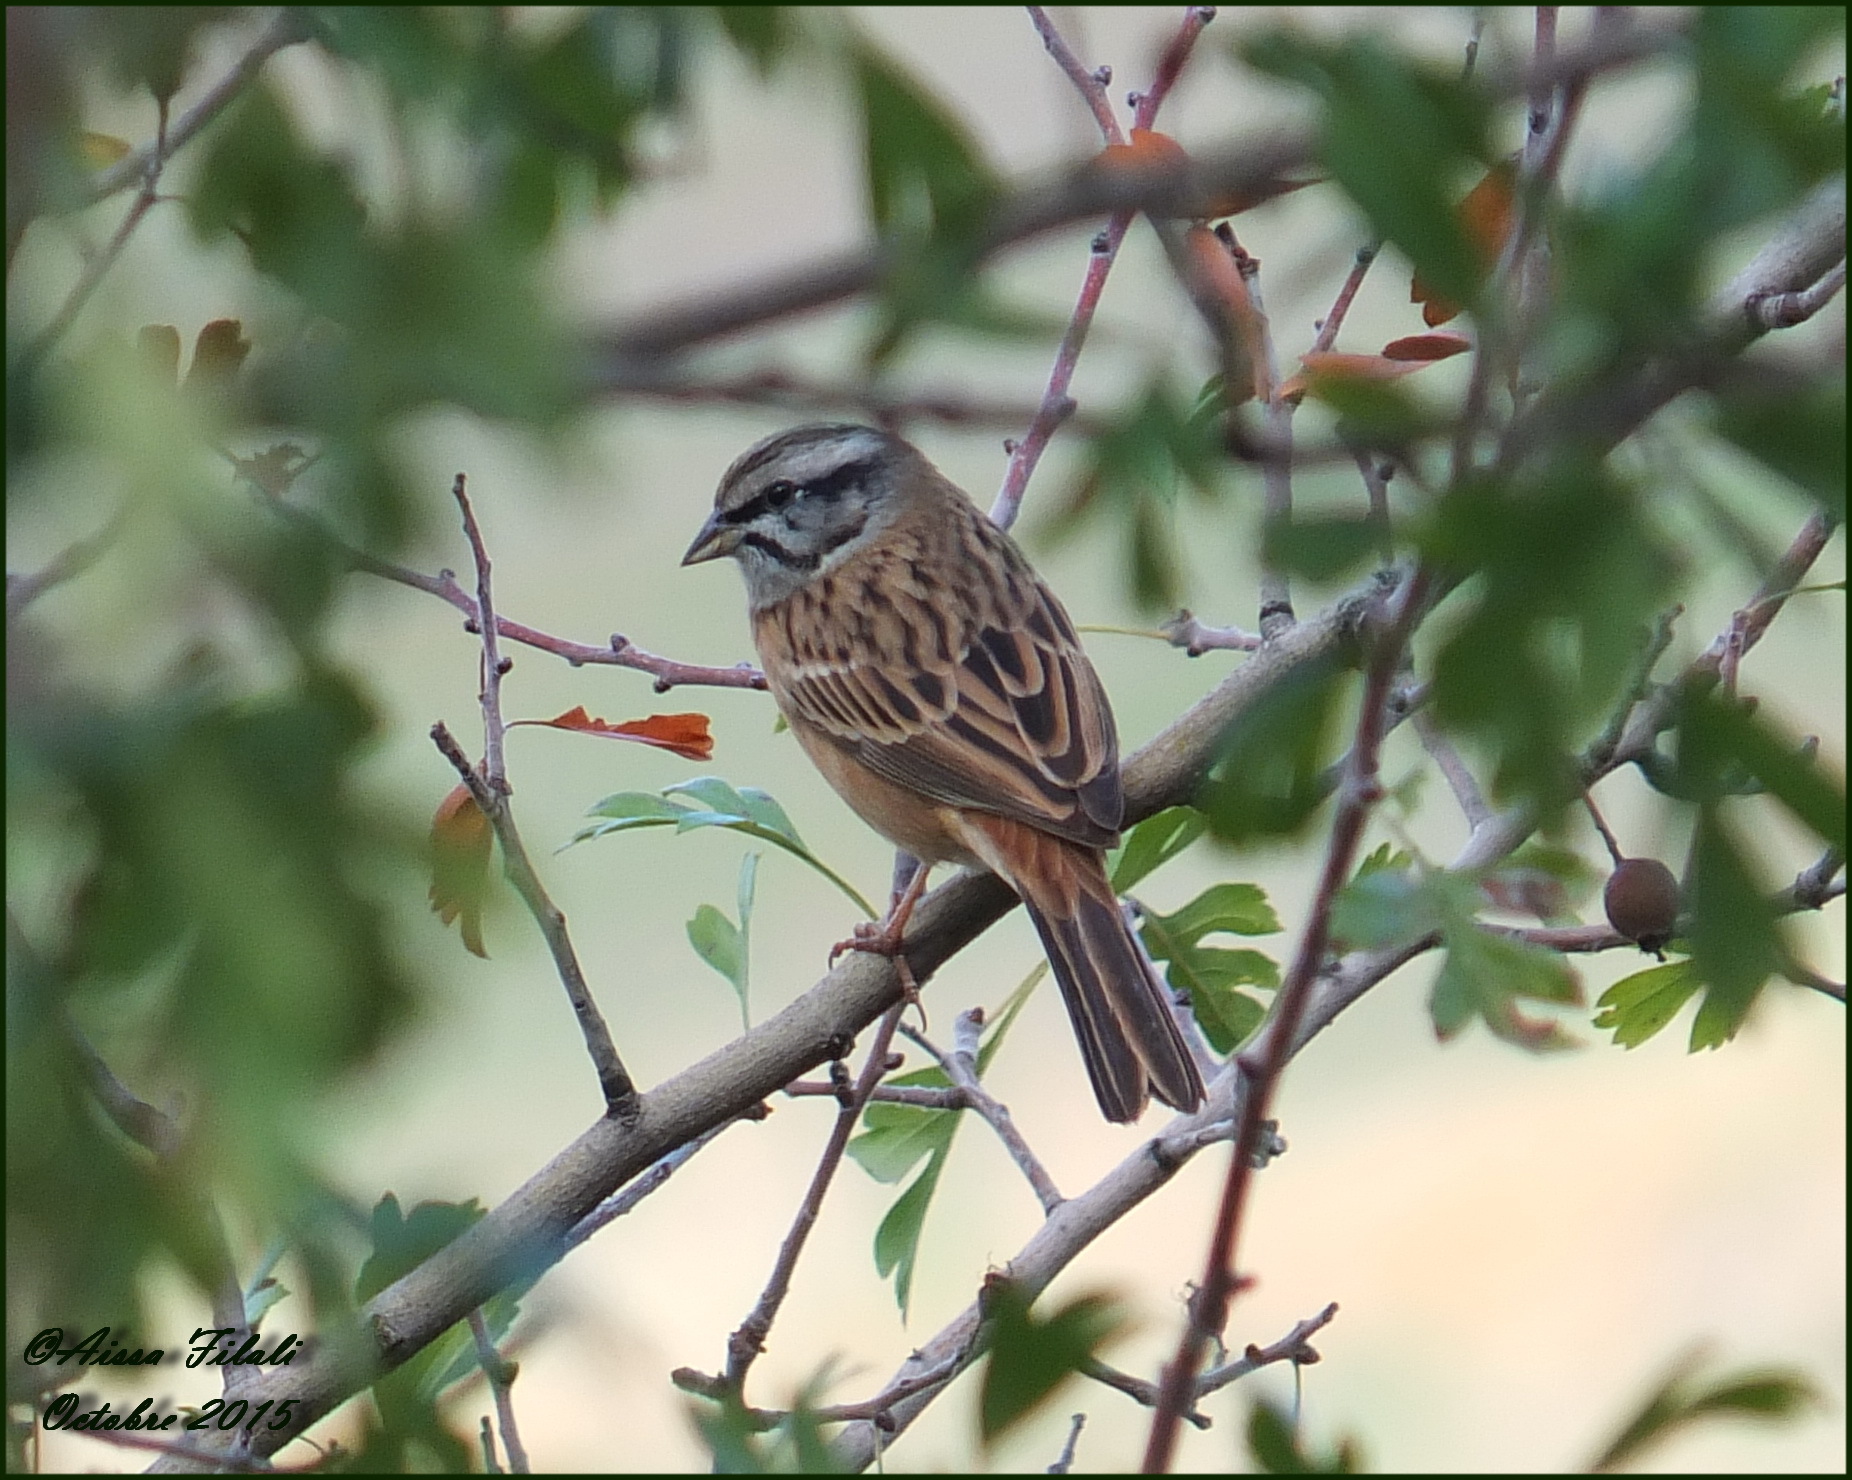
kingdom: Animalia
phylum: Chordata
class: Aves
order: Passeriformes
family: Emberizidae
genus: Emberiza
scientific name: Emberiza cia
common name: Rock bunting
